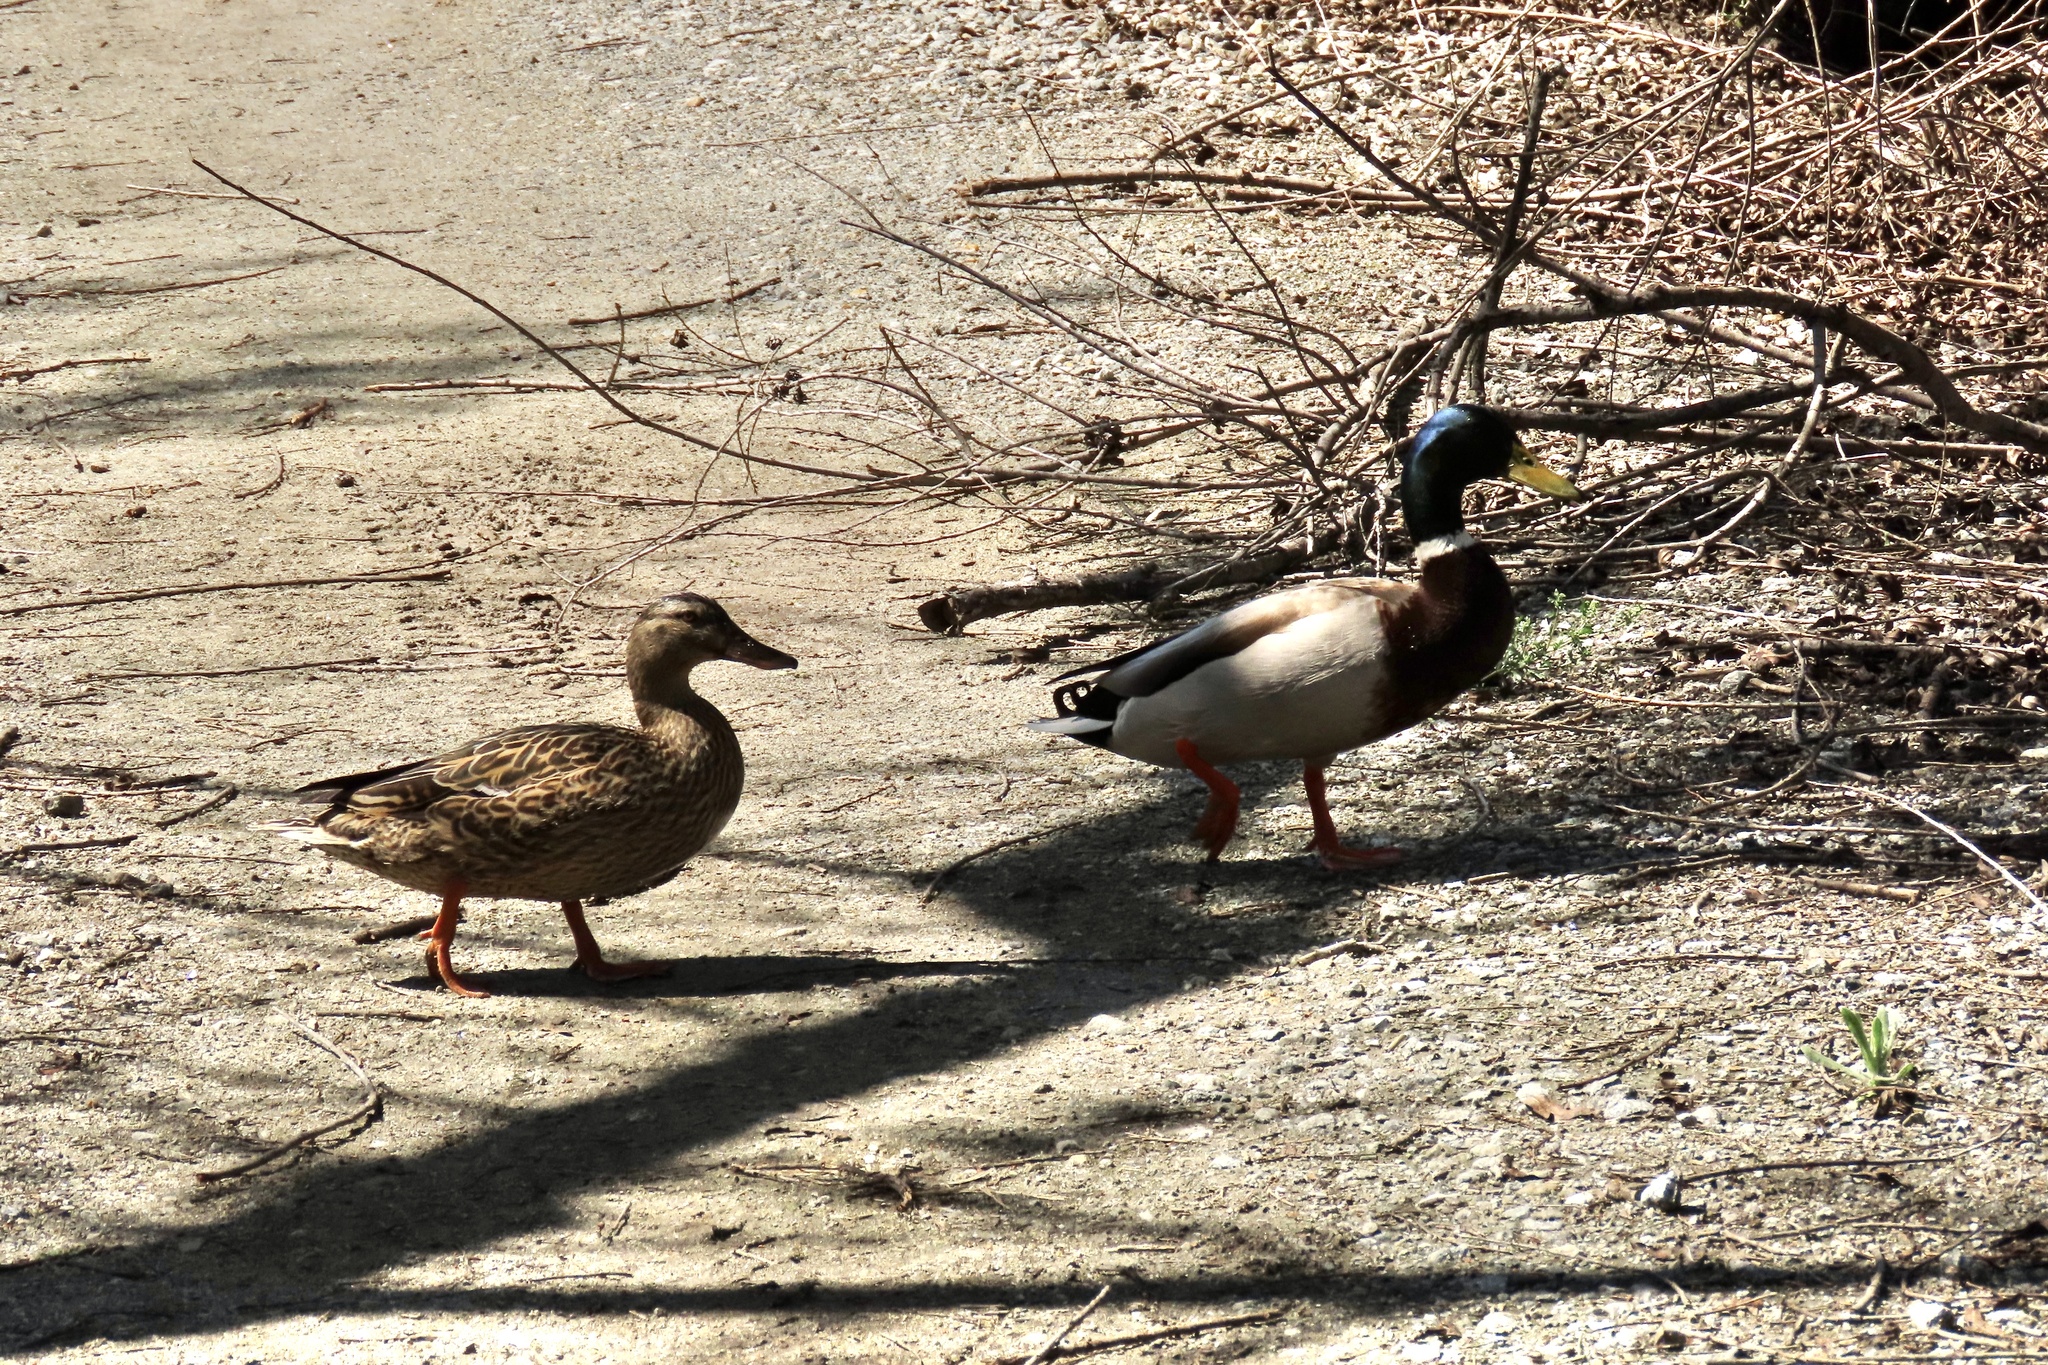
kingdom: Animalia
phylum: Chordata
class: Aves
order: Anseriformes
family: Anatidae
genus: Anas
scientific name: Anas platyrhynchos
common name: Mallard
